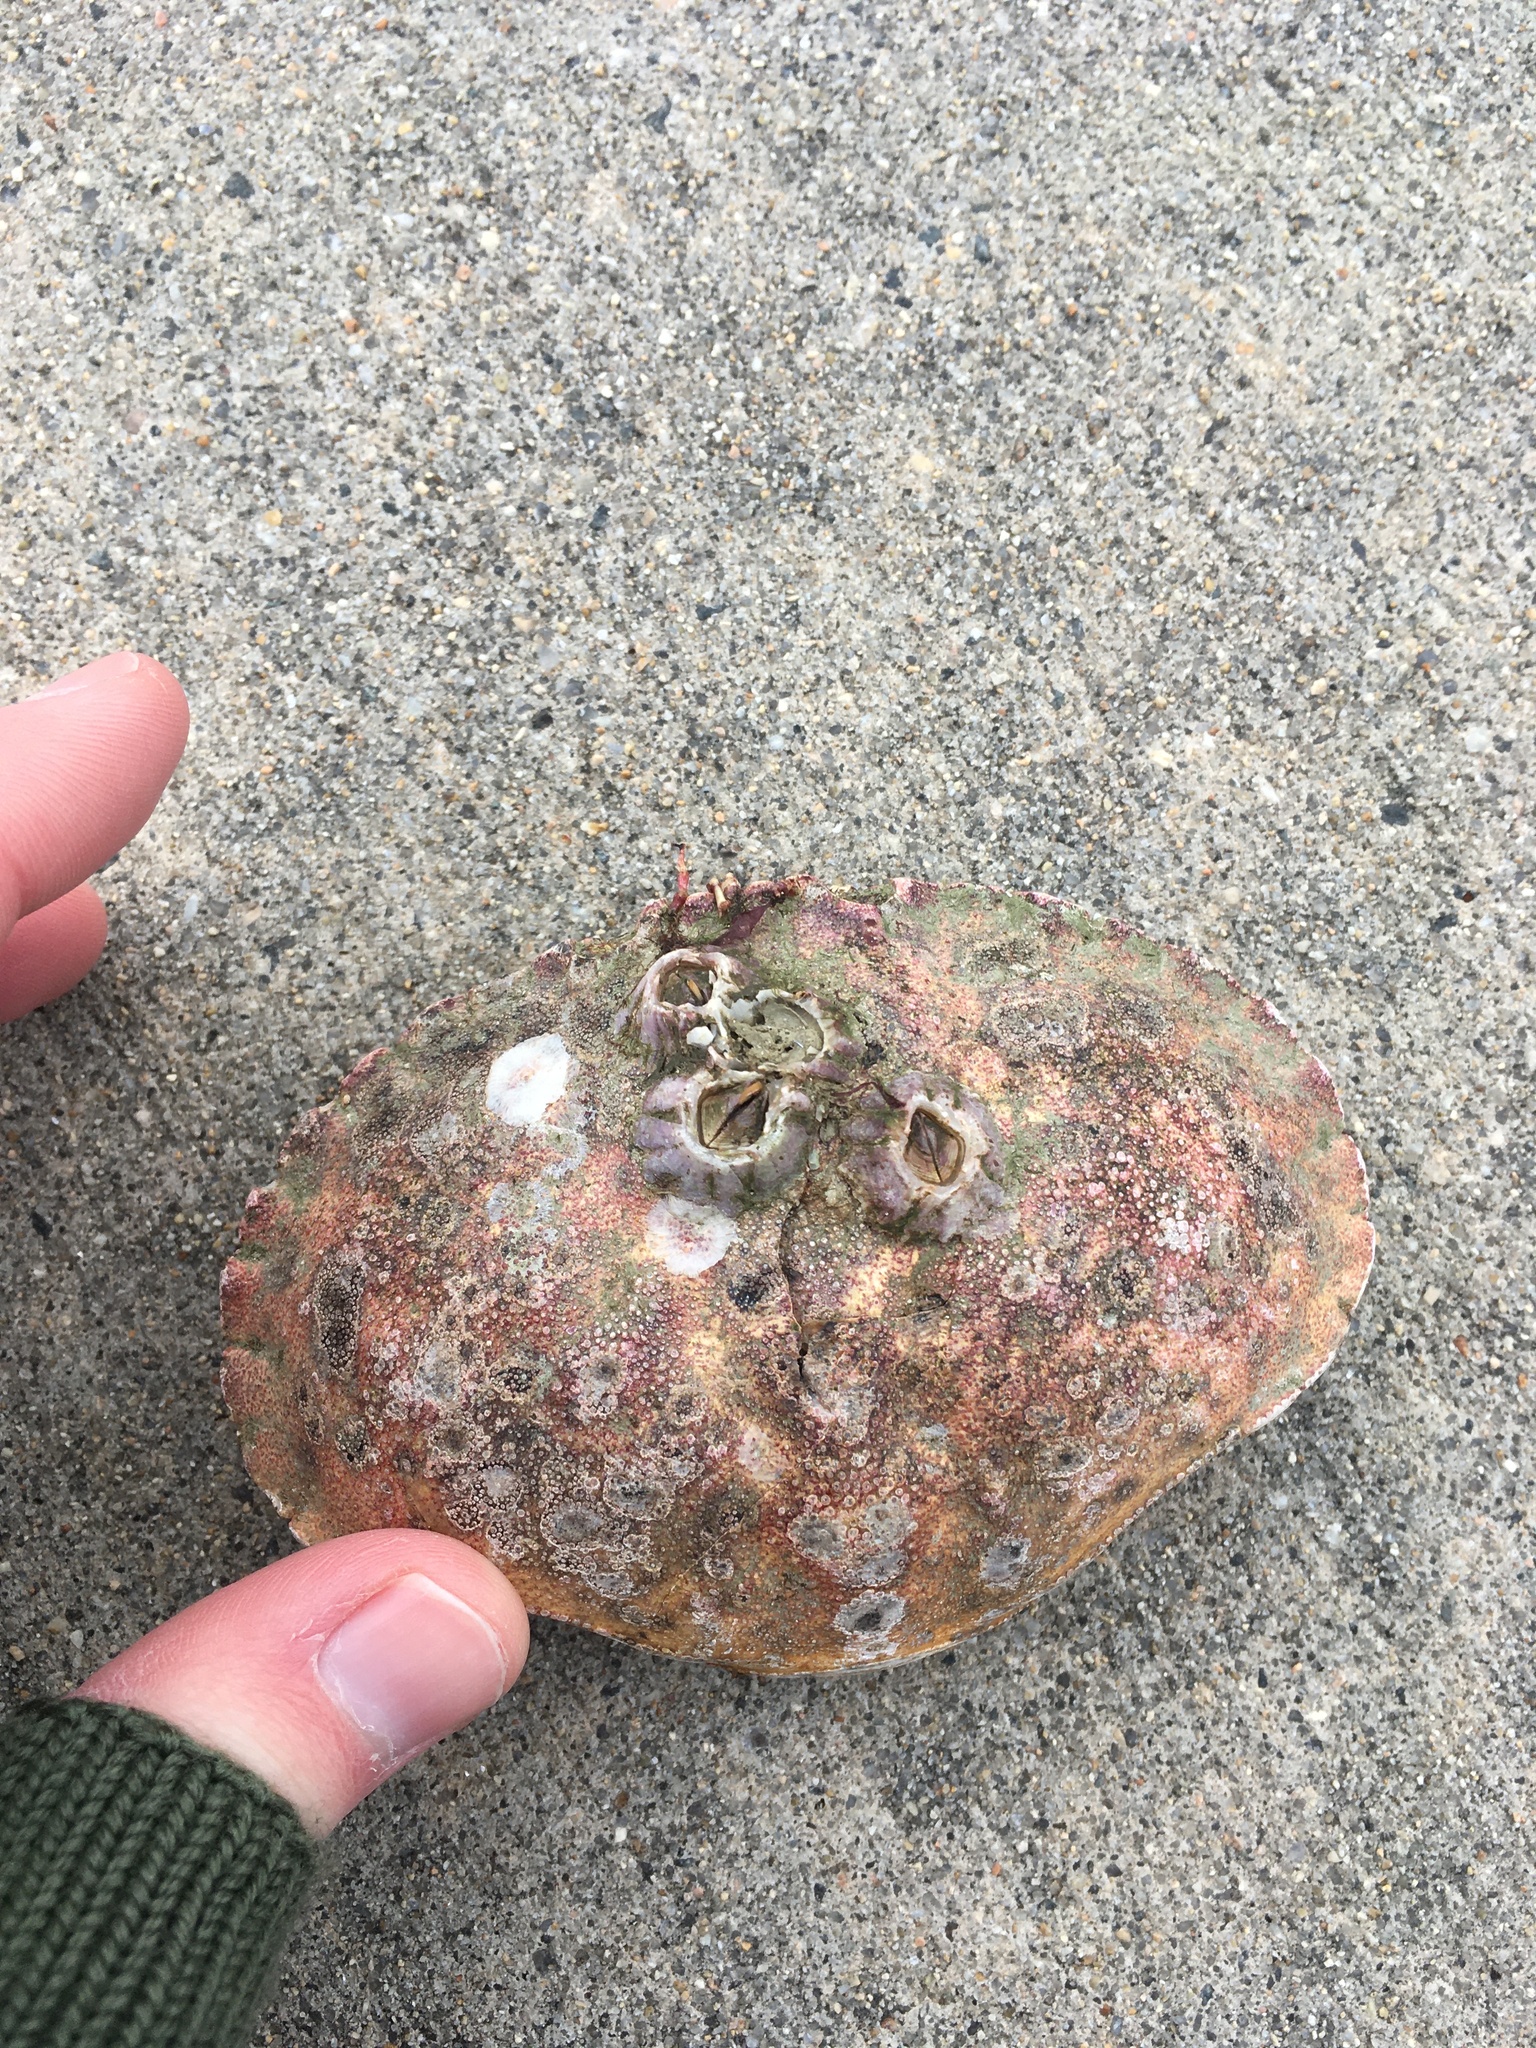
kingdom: Animalia
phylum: Arthropoda
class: Malacostraca
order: Decapoda
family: Cancridae
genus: Cancer
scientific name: Cancer borealis
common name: Jonah crab
